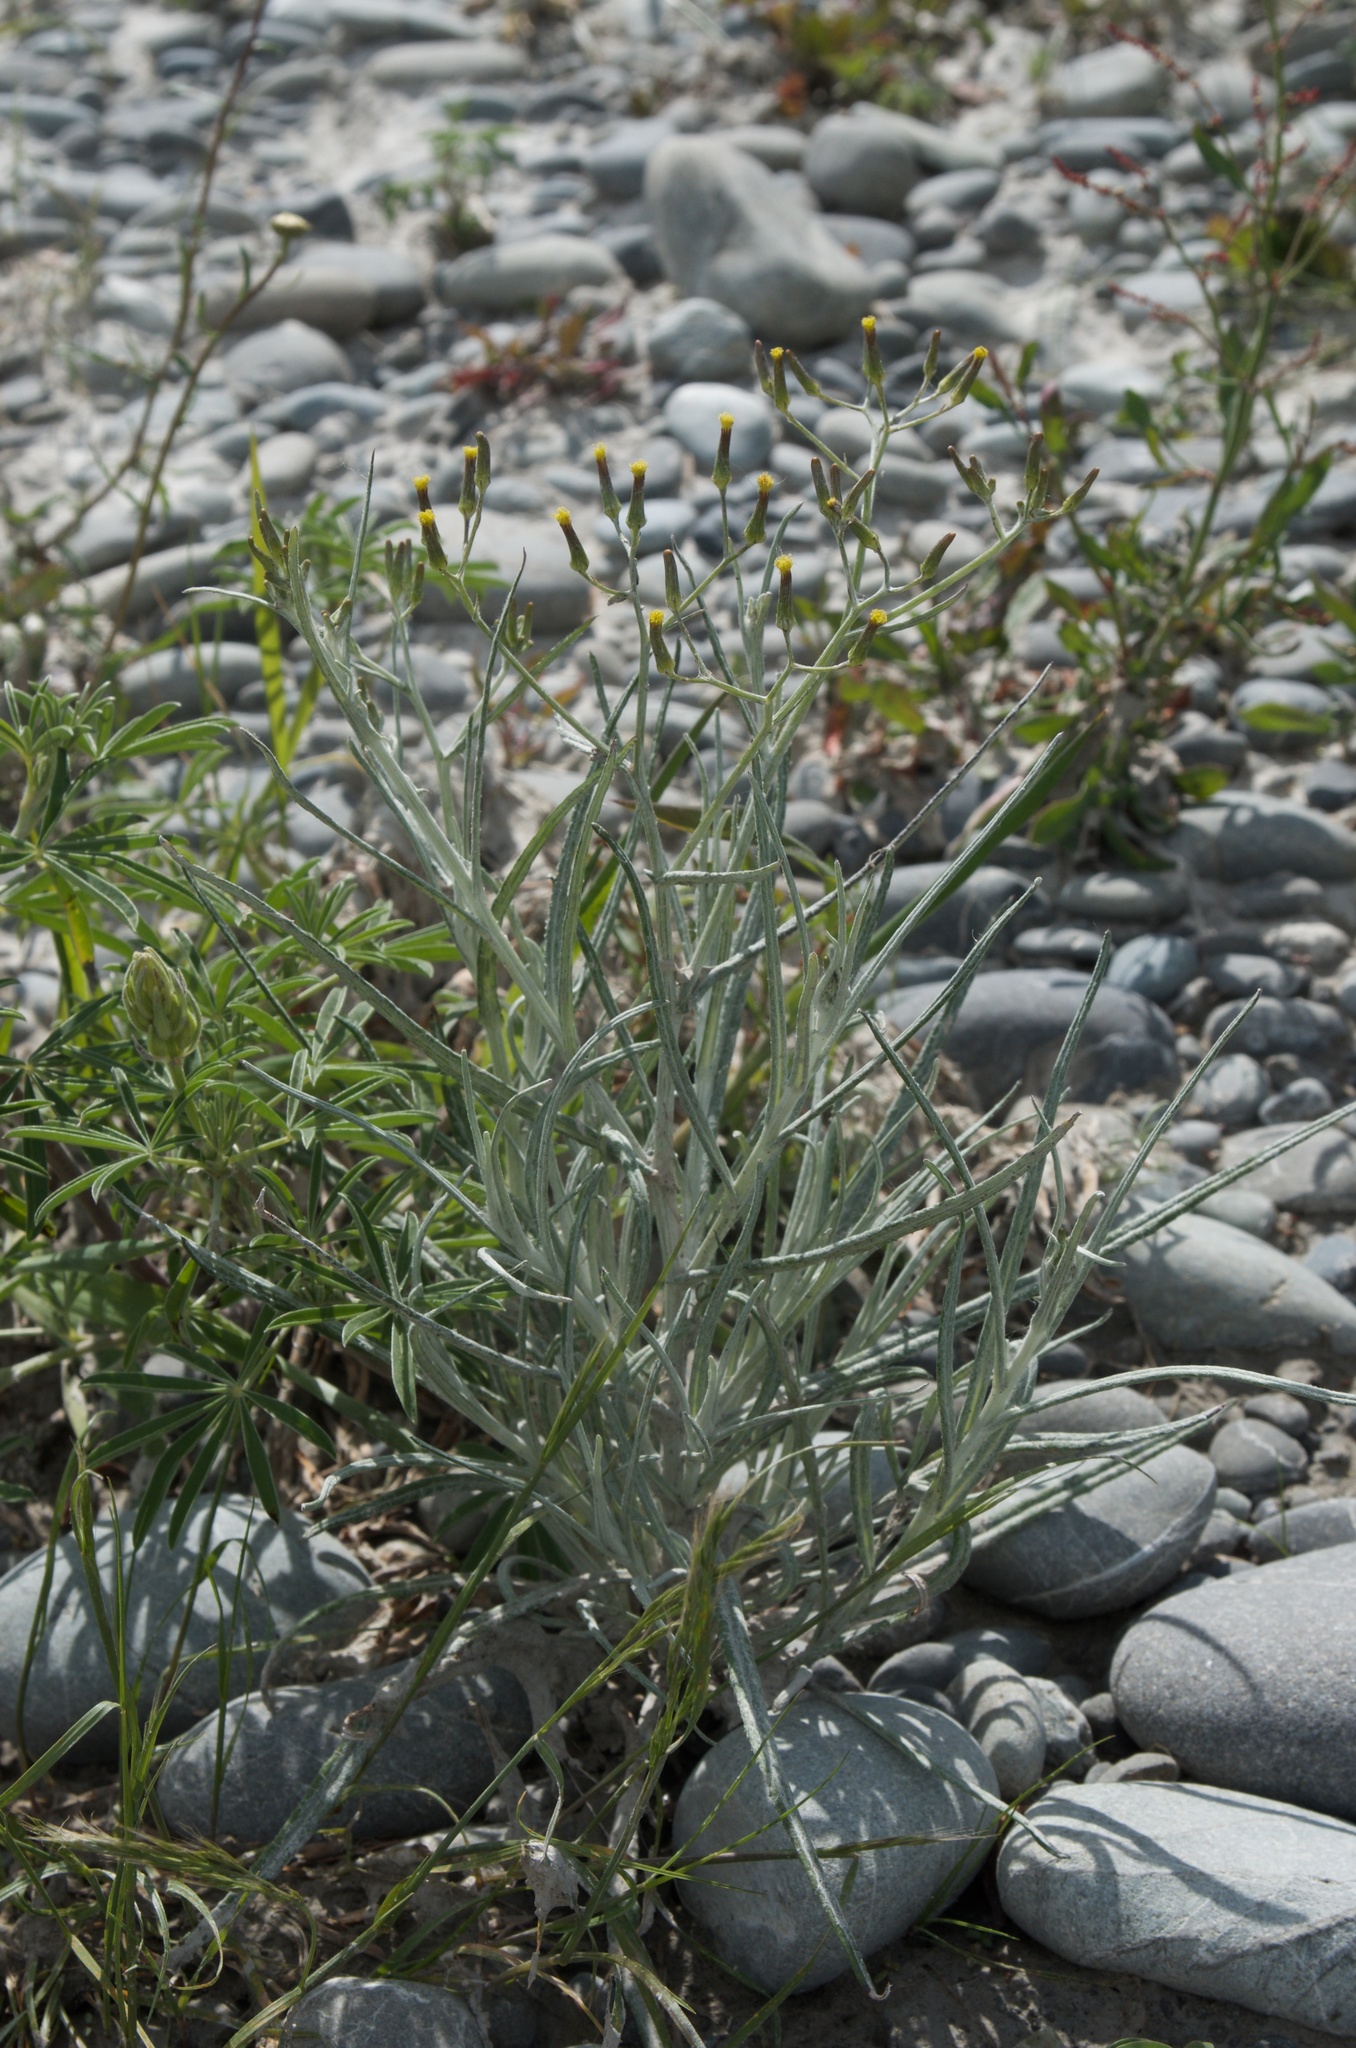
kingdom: Plantae
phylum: Tracheophyta
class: Magnoliopsida
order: Asterales
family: Asteraceae
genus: Senecio
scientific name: Senecio quadridentatus
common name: Cotton fireweed
